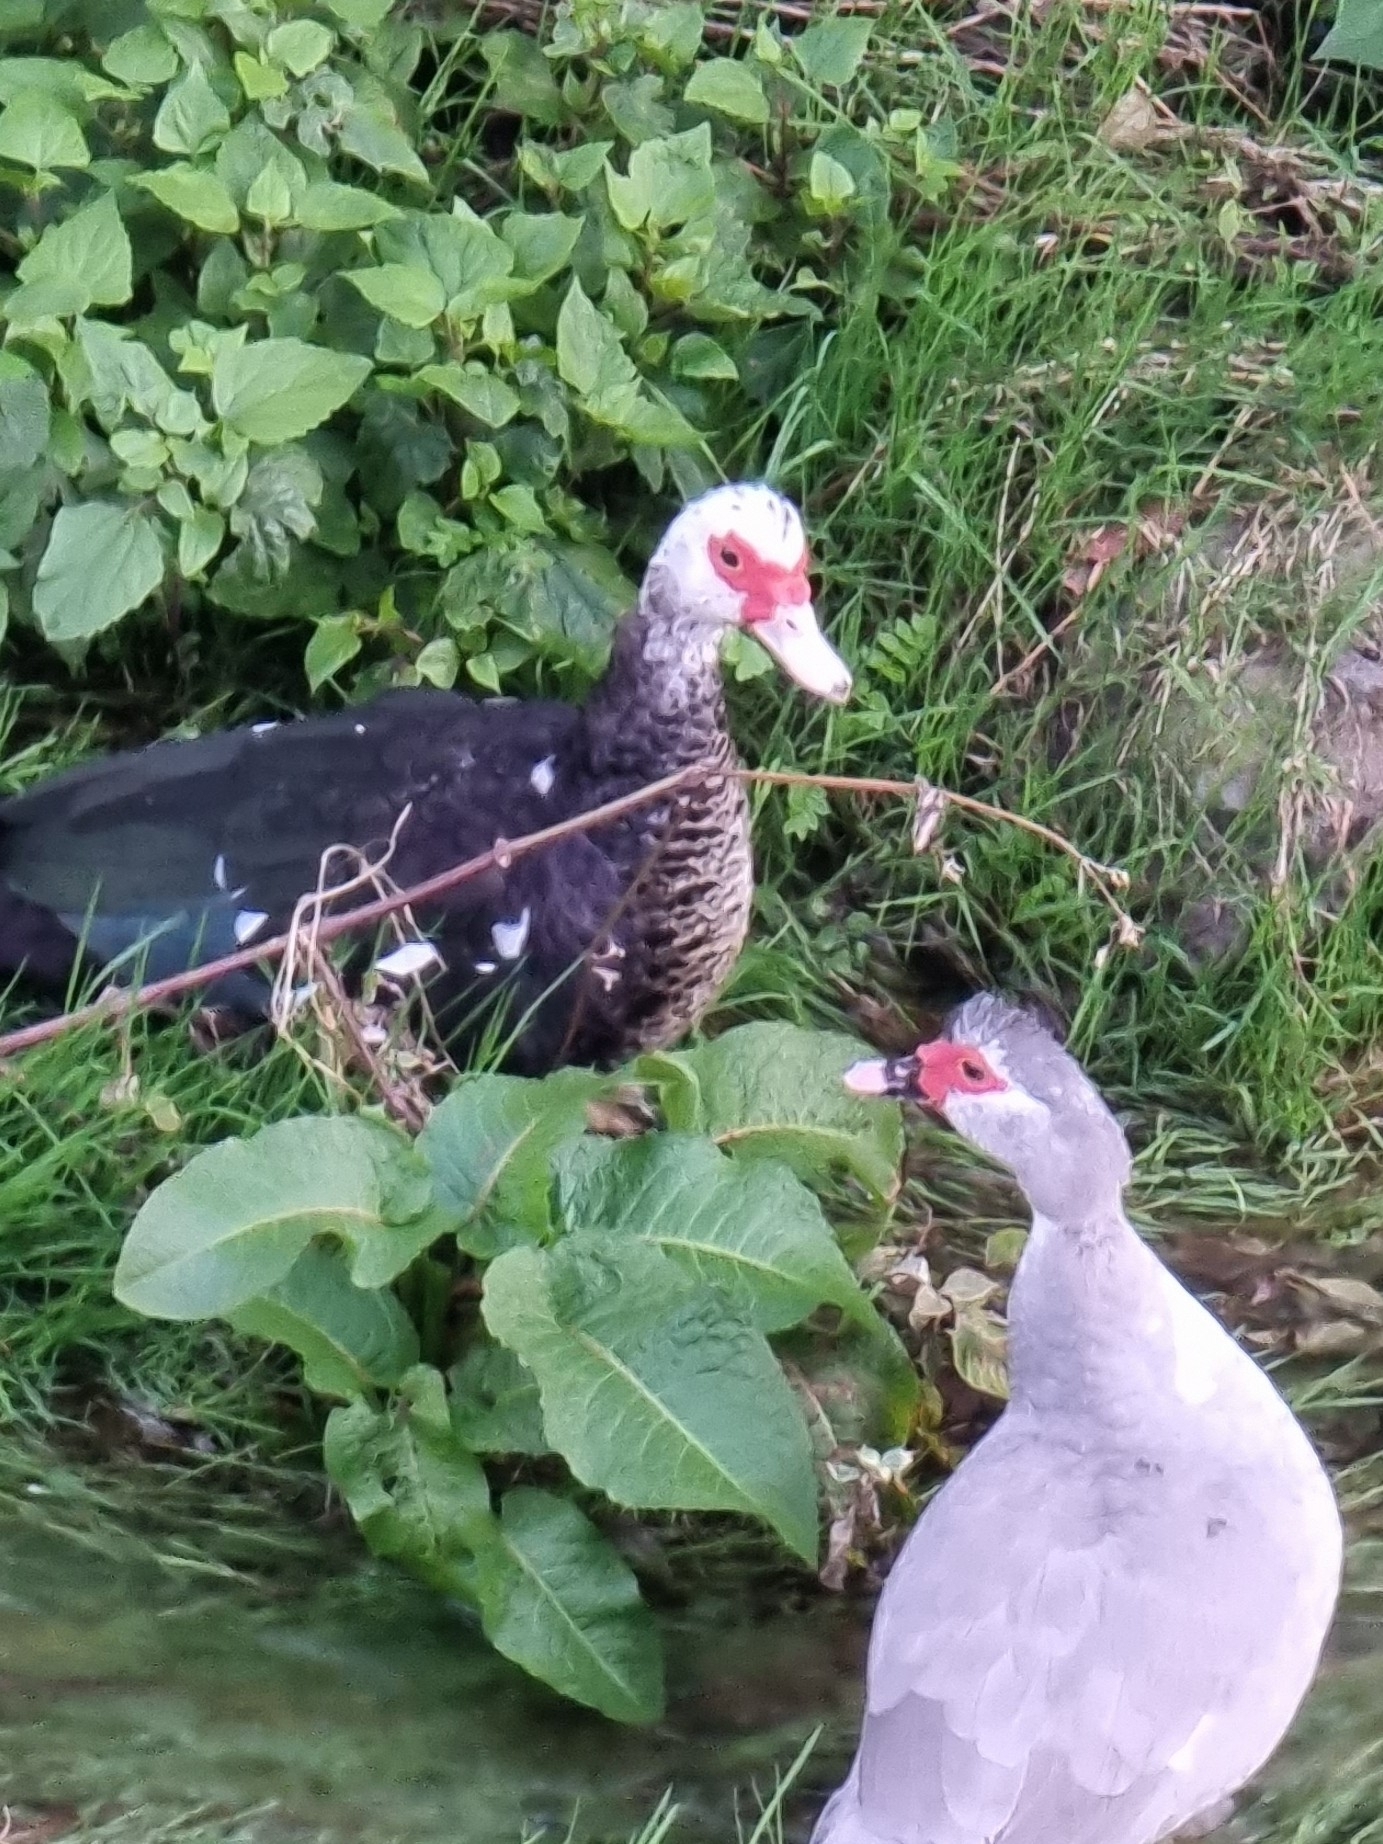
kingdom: Animalia
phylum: Chordata
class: Aves
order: Anseriformes
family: Anatidae
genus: Cairina
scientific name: Cairina moschata
